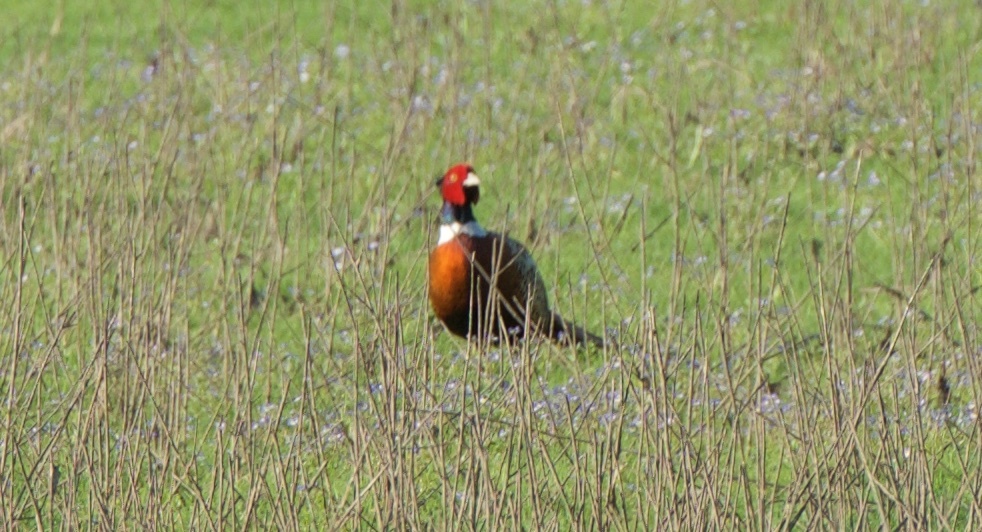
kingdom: Animalia
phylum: Chordata
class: Aves
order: Galliformes
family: Phasianidae
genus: Phasianus
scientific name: Phasianus colchicus
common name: Common pheasant
